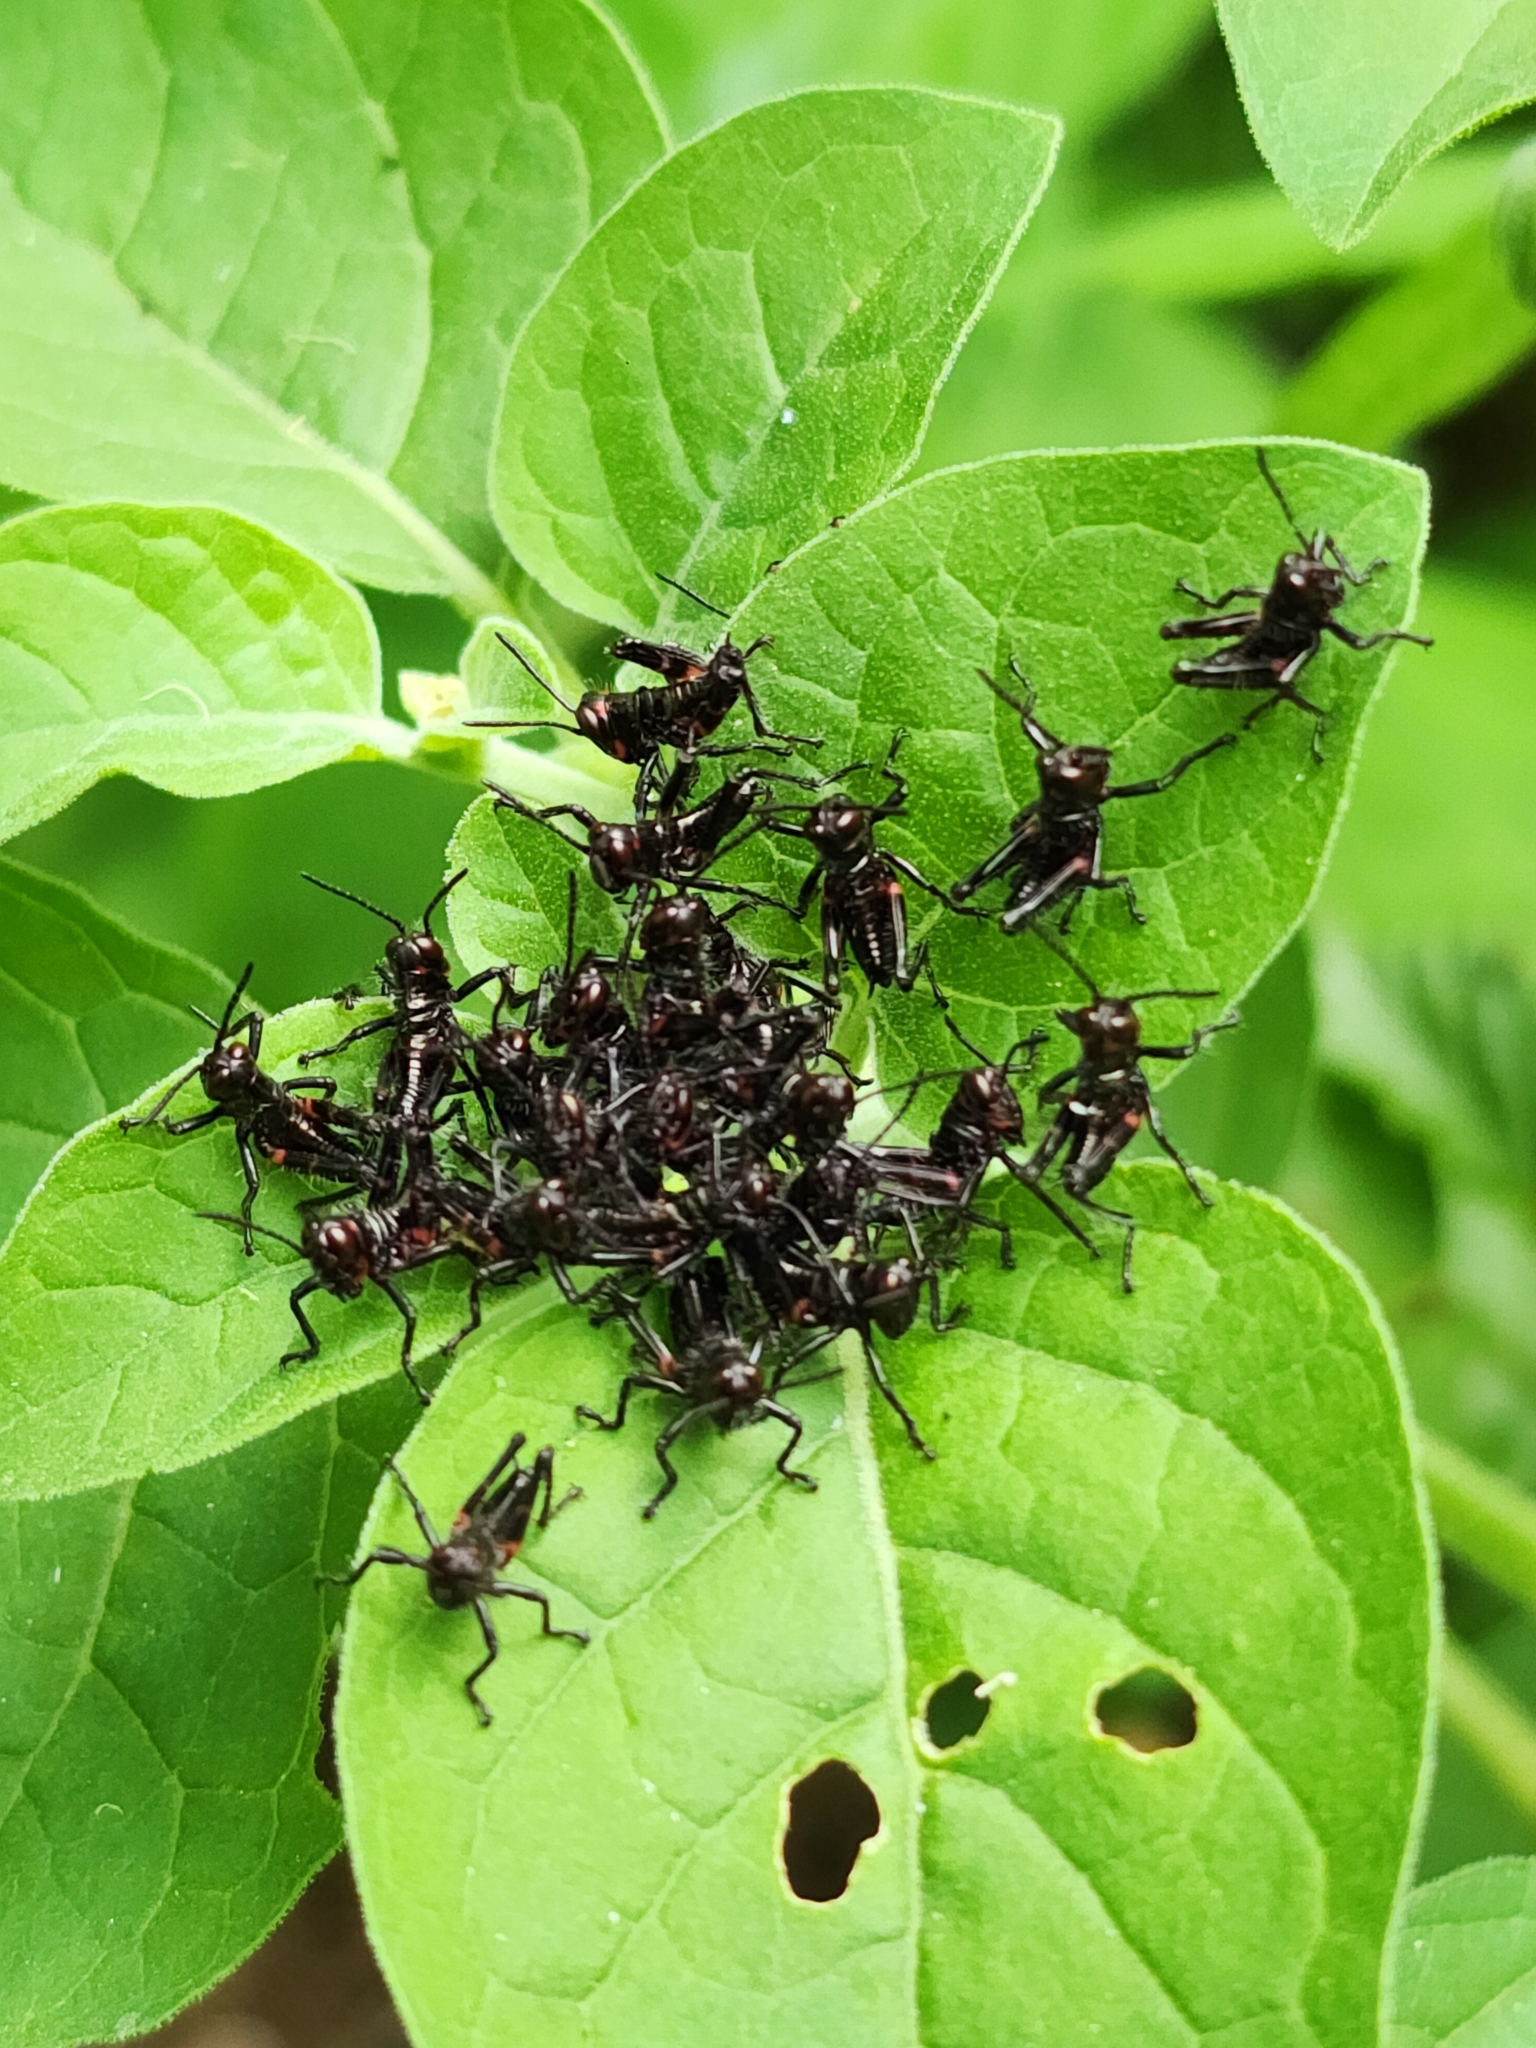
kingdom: Animalia
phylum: Arthropoda
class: Insecta
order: Orthoptera
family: Romaleidae
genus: Chromacris
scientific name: Chromacris speciosa
